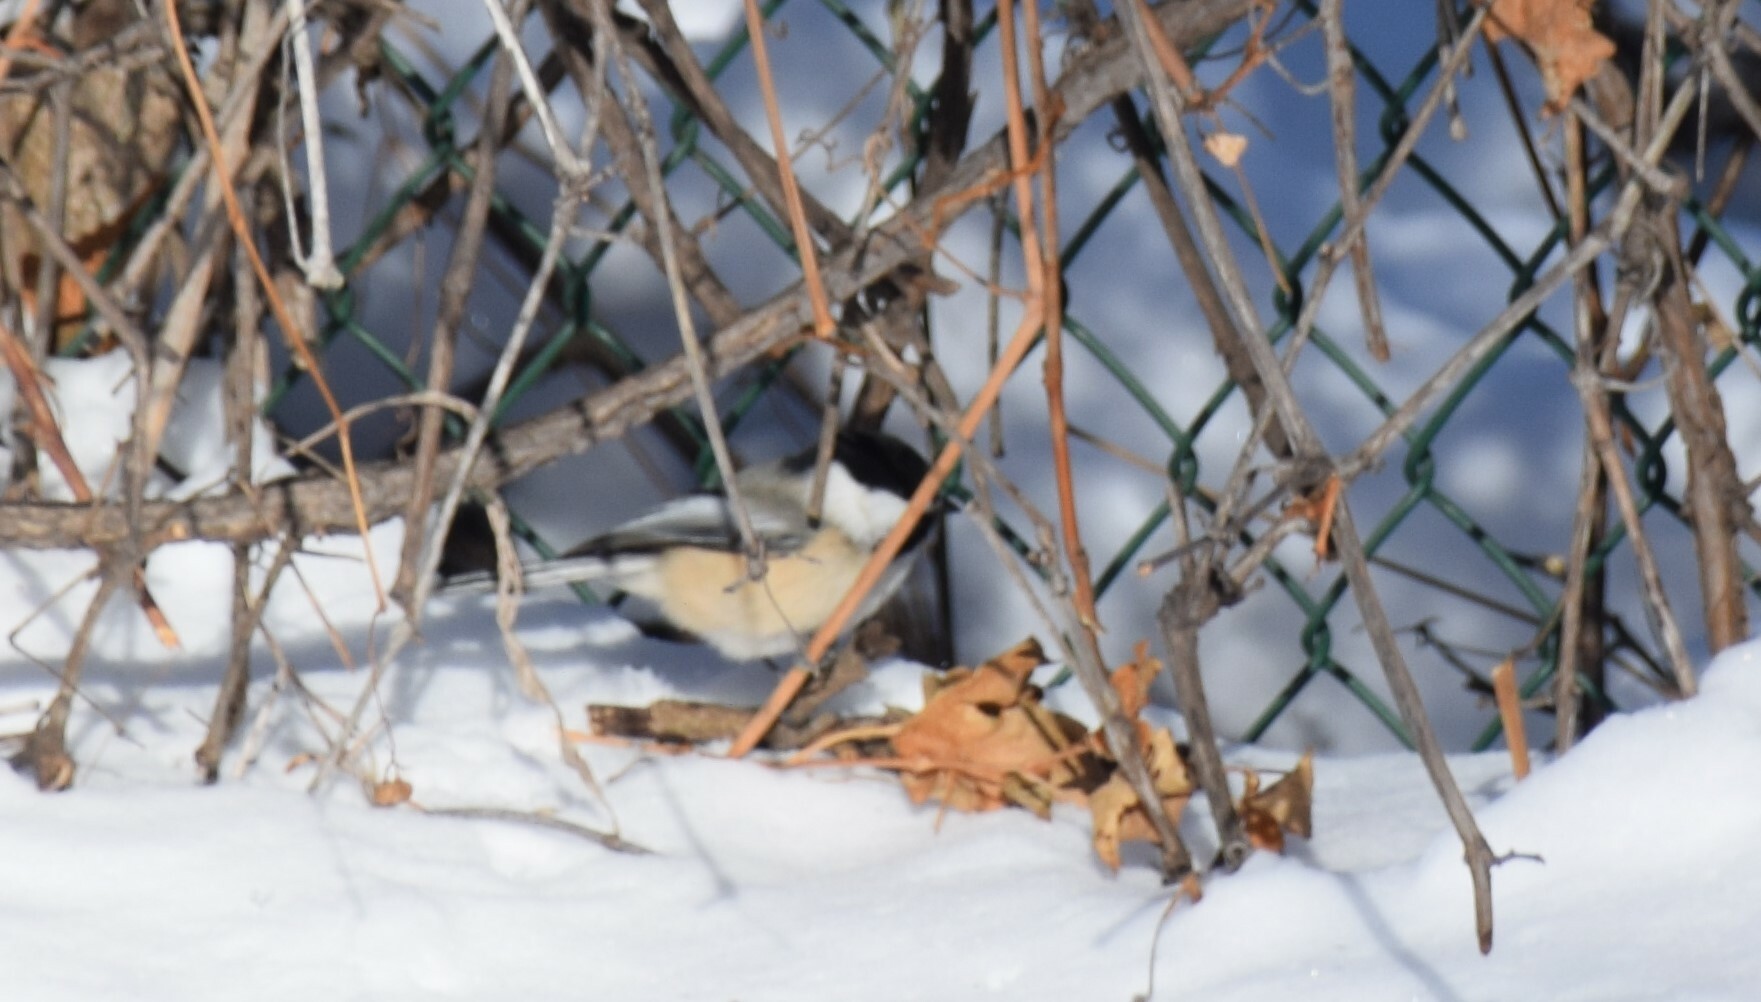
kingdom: Animalia
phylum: Chordata
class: Aves
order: Passeriformes
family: Paridae
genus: Poecile
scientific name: Poecile atricapillus
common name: Black-capped chickadee
